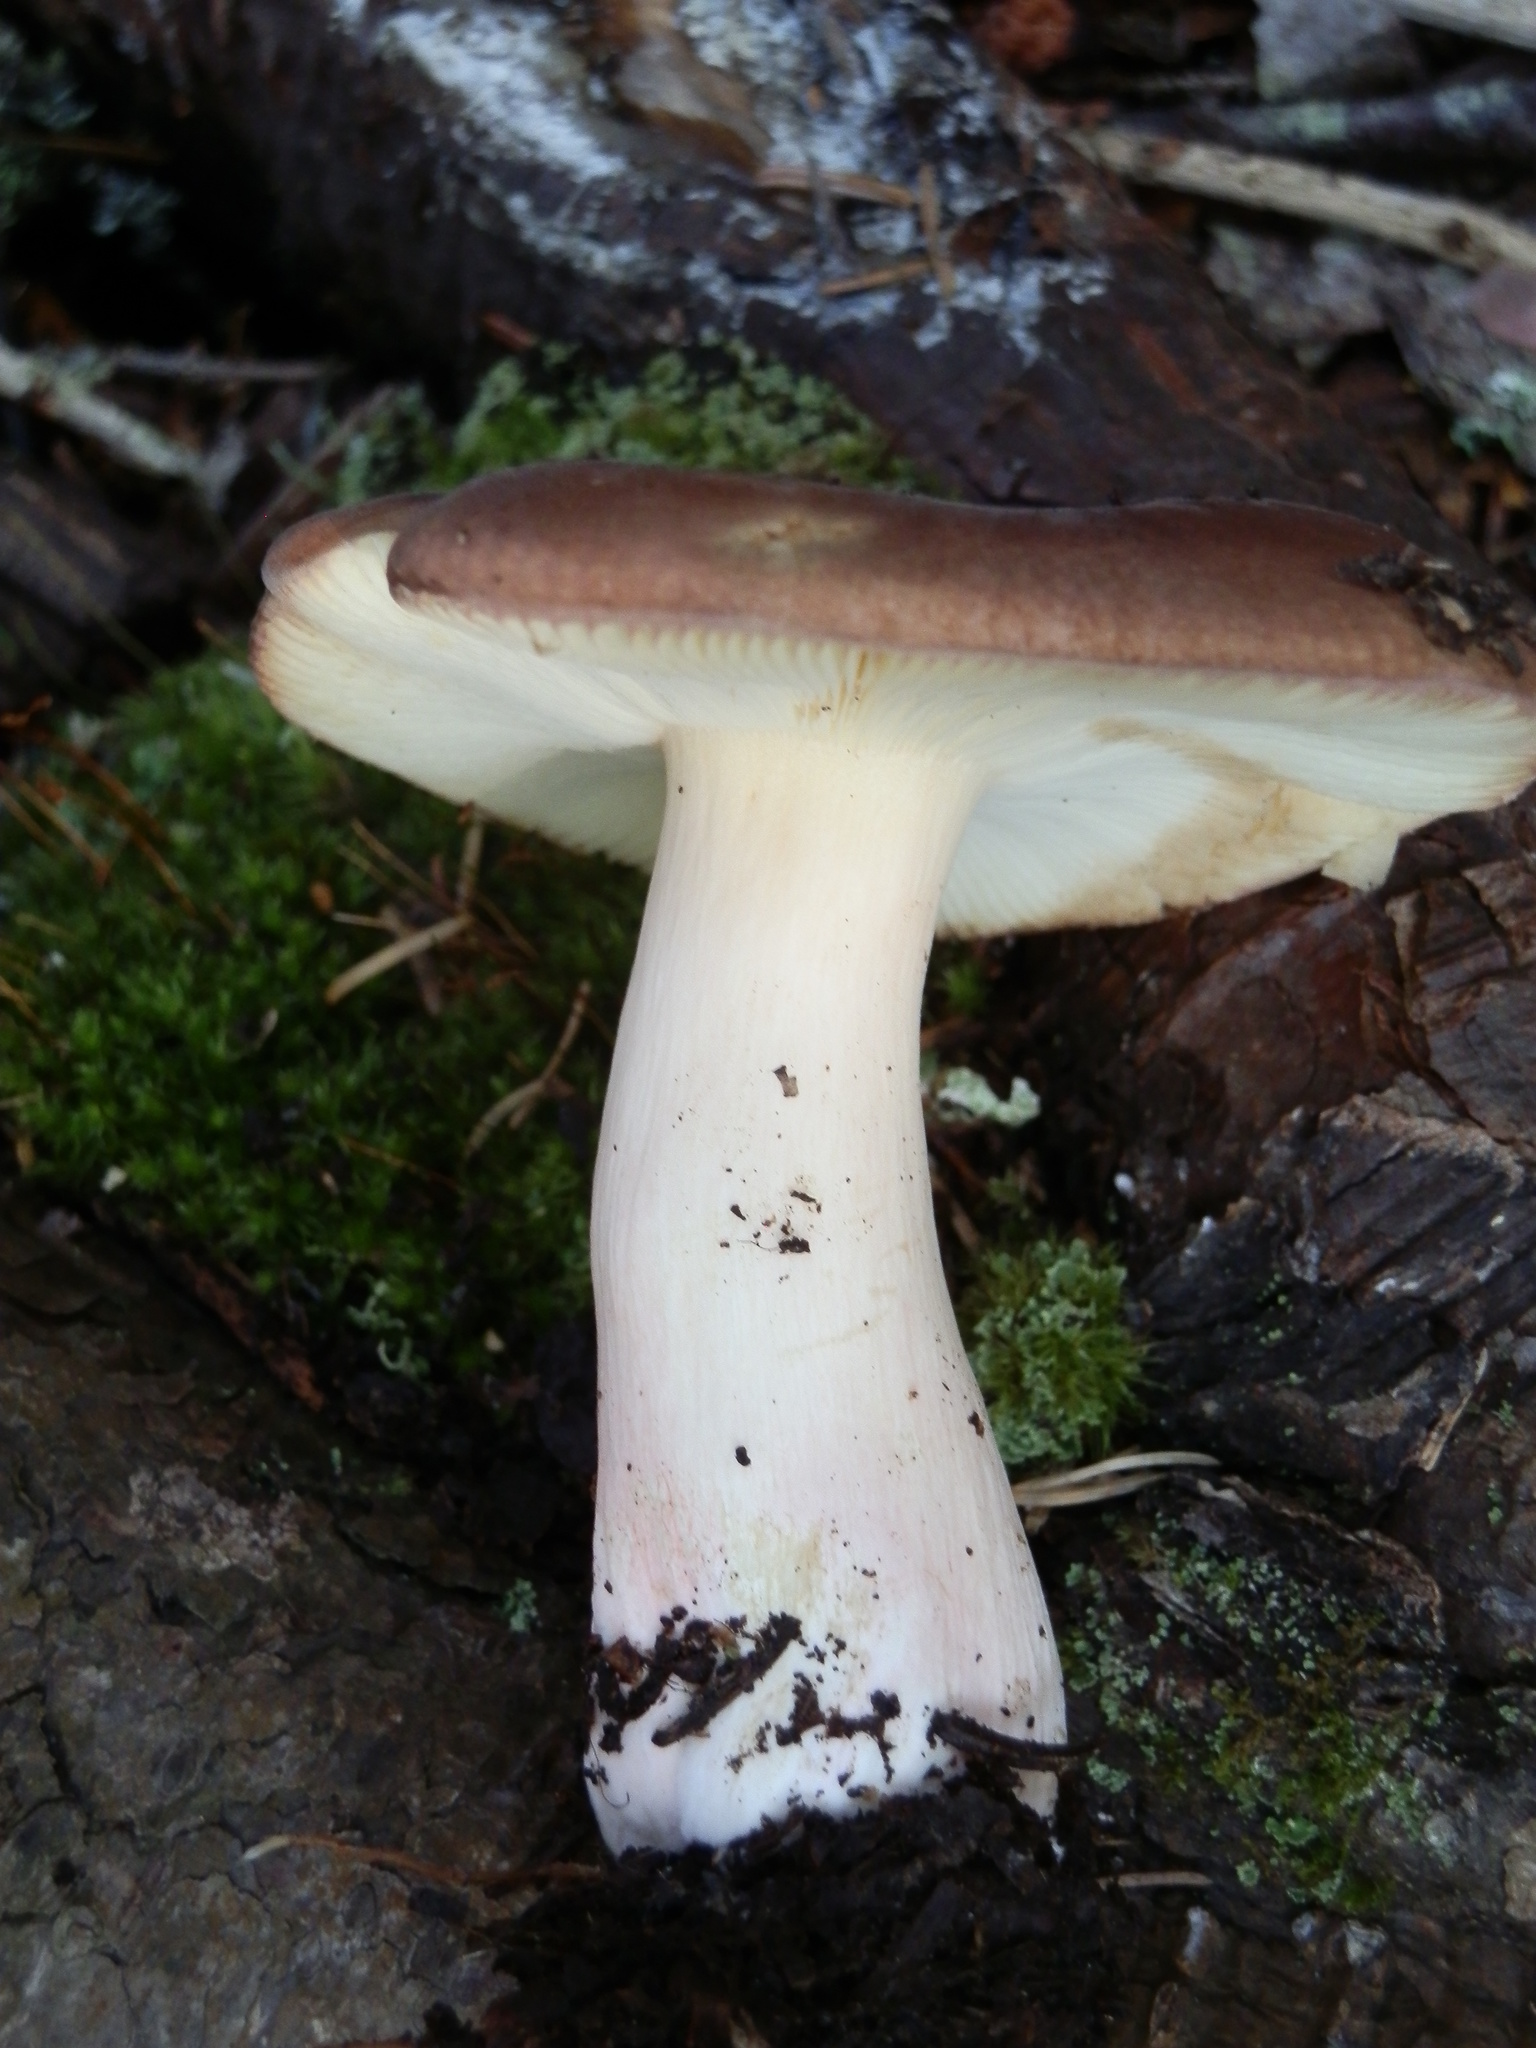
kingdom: Fungi
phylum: Basidiomycota
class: Agaricomycetes
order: Russulales
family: Russulaceae
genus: Russula
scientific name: Russula mustelina
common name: Russet brittlegill
